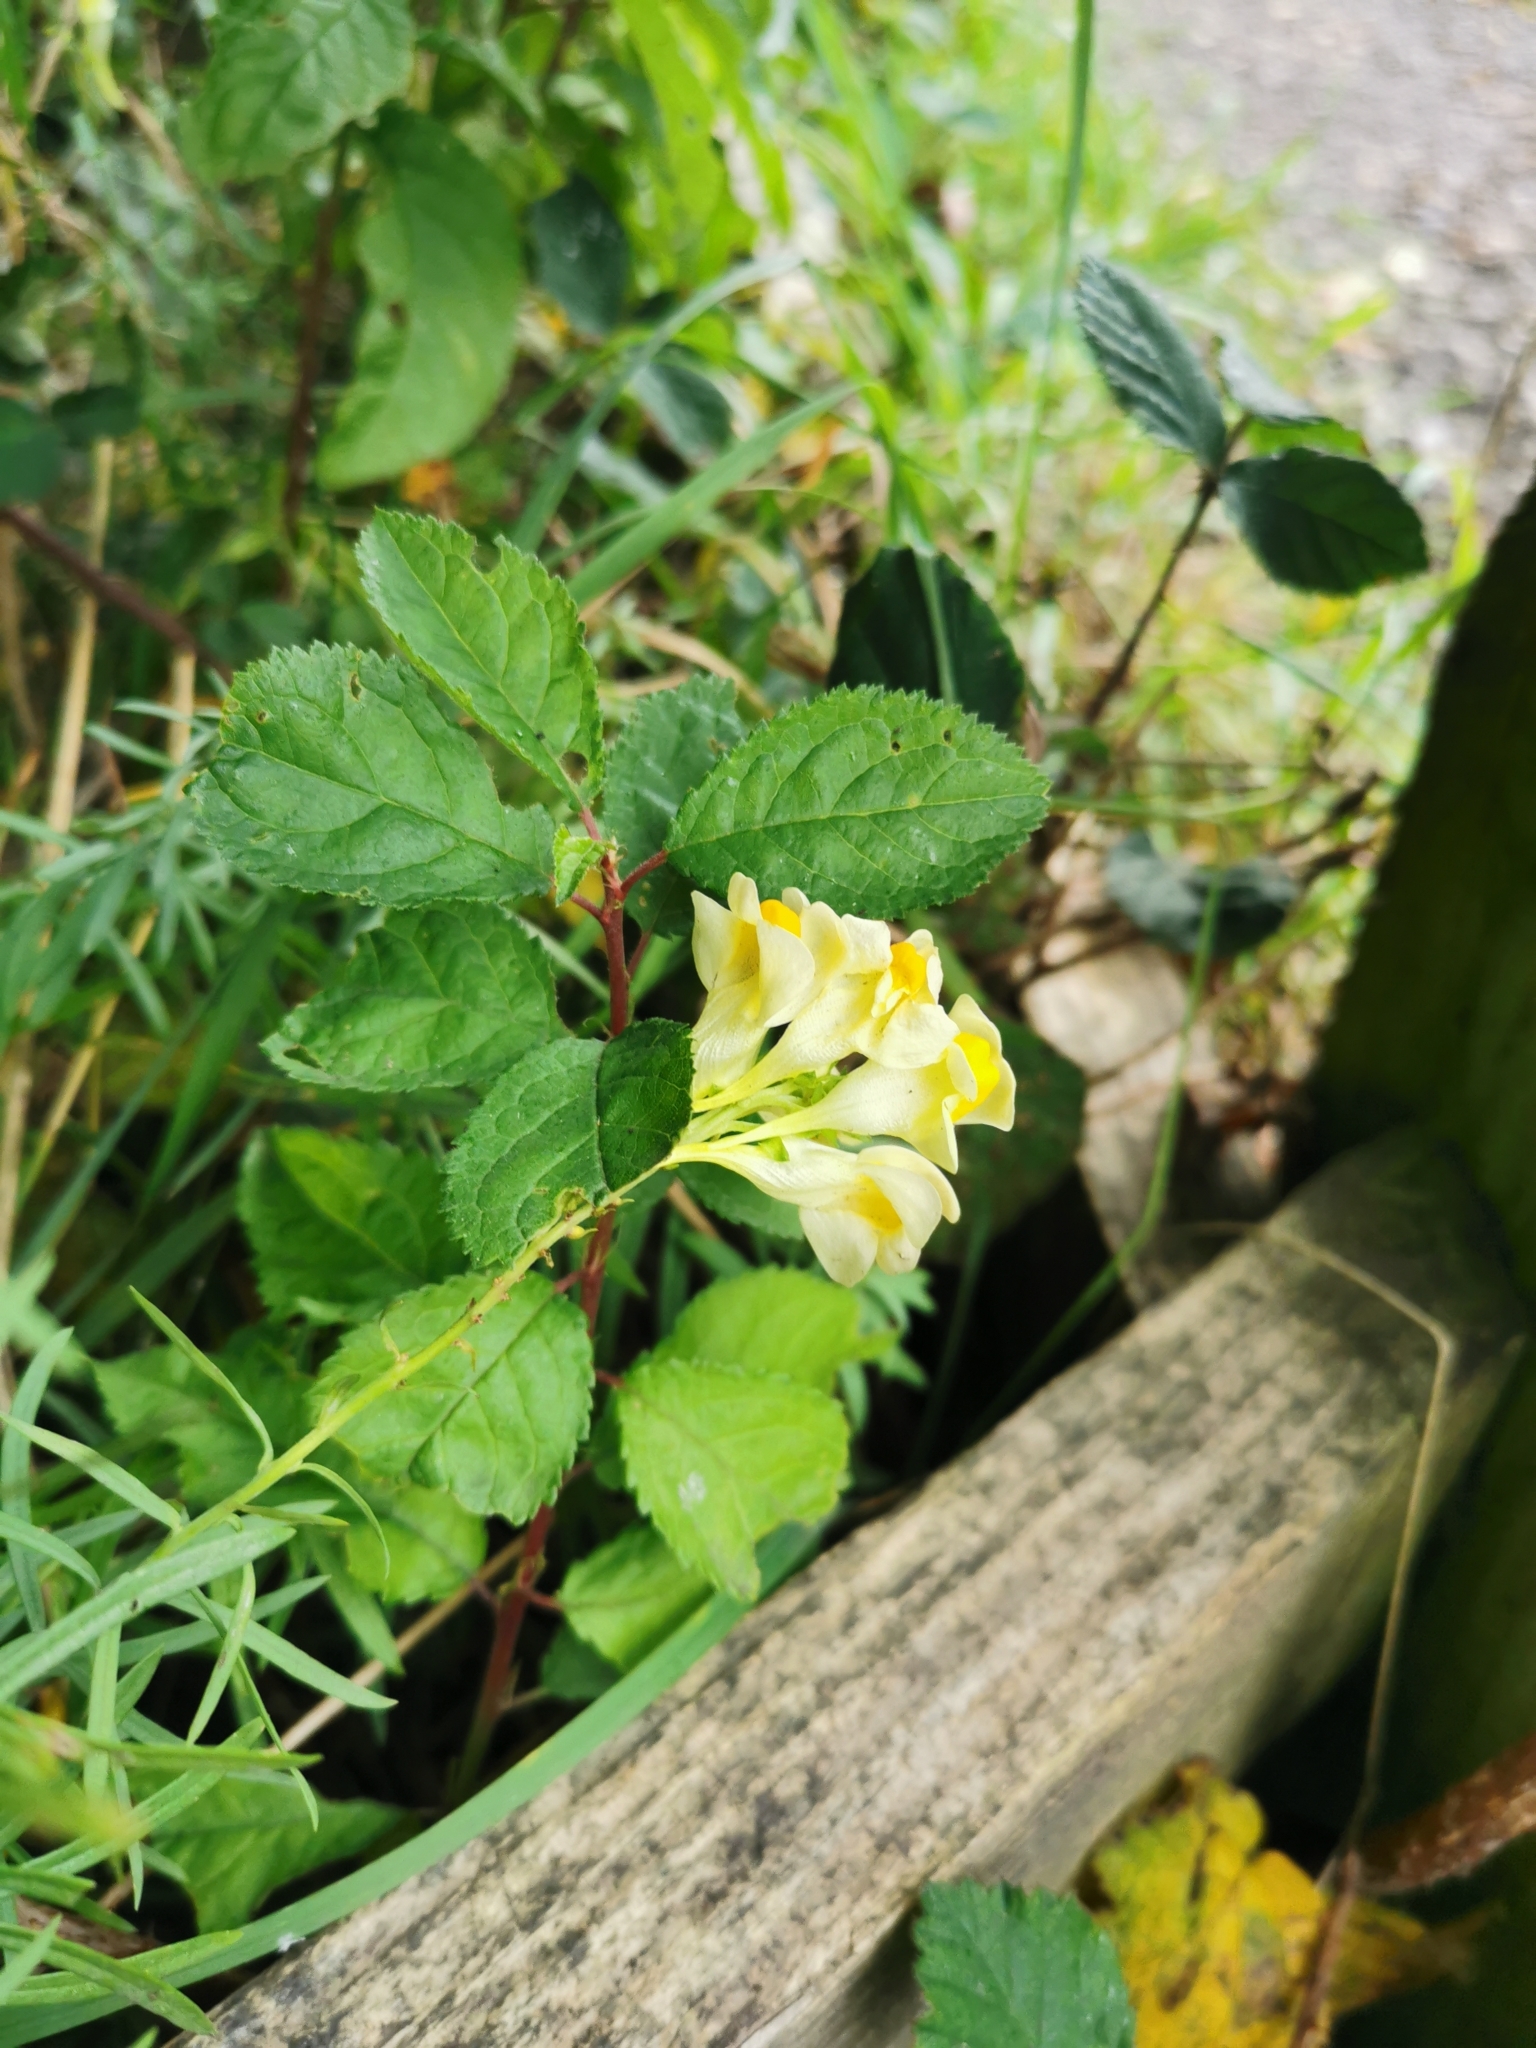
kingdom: Plantae
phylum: Tracheophyta
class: Magnoliopsida
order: Lamiales
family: Plantaginaceae
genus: Linaria
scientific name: Linaria vulgaris
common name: Butter and eggs
